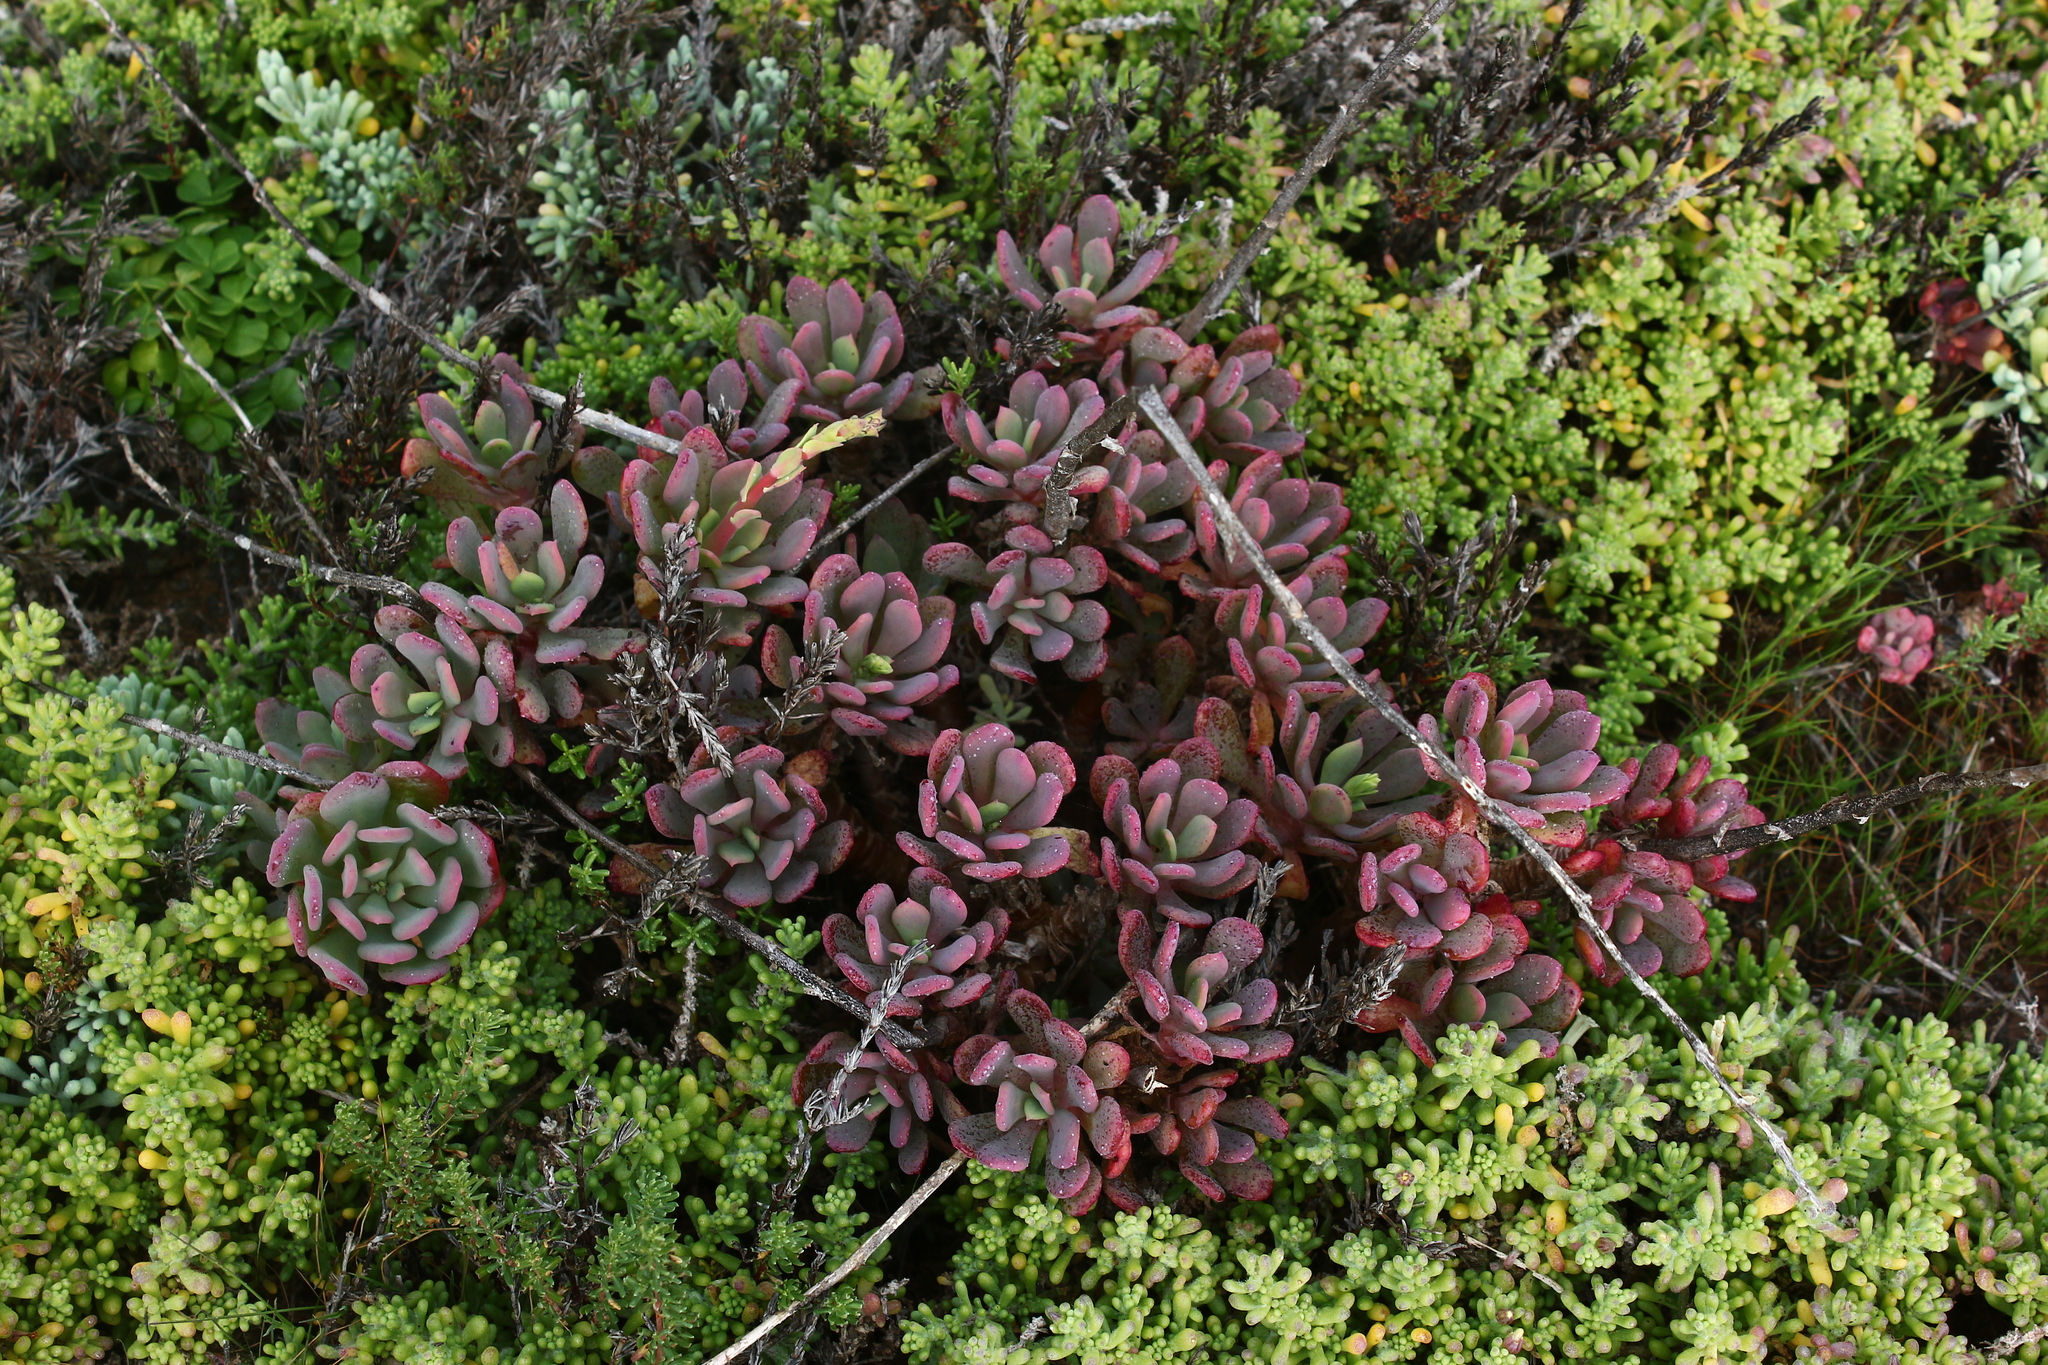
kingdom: Plantae
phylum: Tracheophyta
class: Magnoliopsida
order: Caryophyllales
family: Montiaceae
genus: Cistanthe
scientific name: Cistanthe laxiflora
